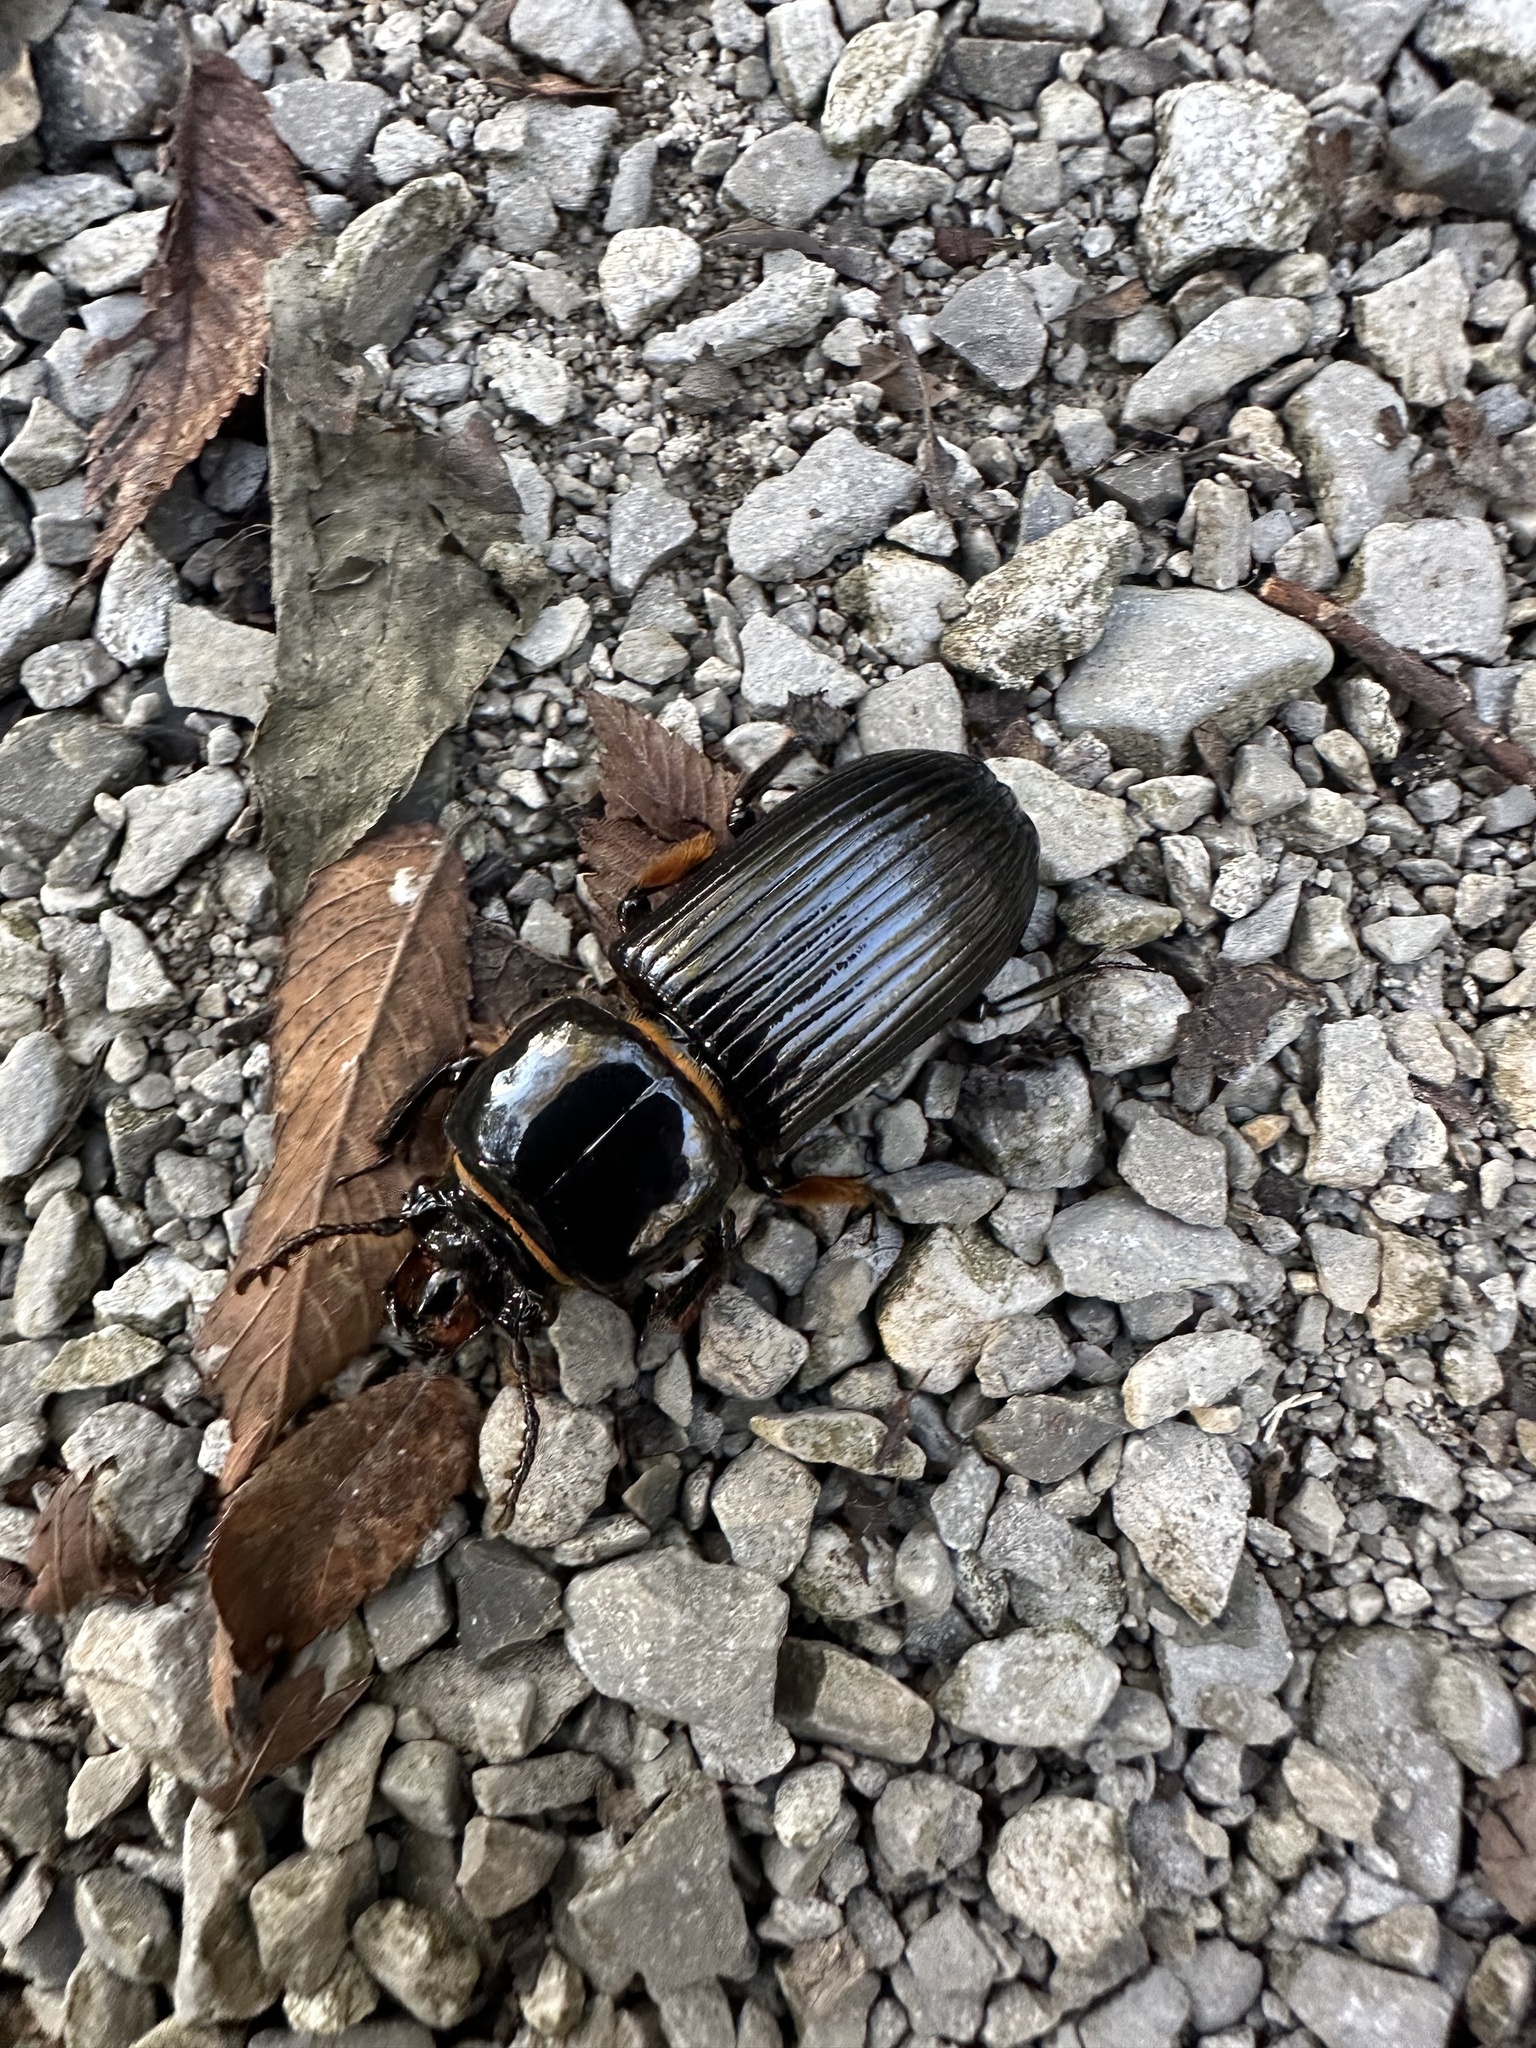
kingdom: Animalia
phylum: Arthropoda
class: Insecta
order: Coleoptera
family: Passalidae
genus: Odontotaenius
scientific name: Odontotaenius disjunctus
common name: Patent leather beetle
